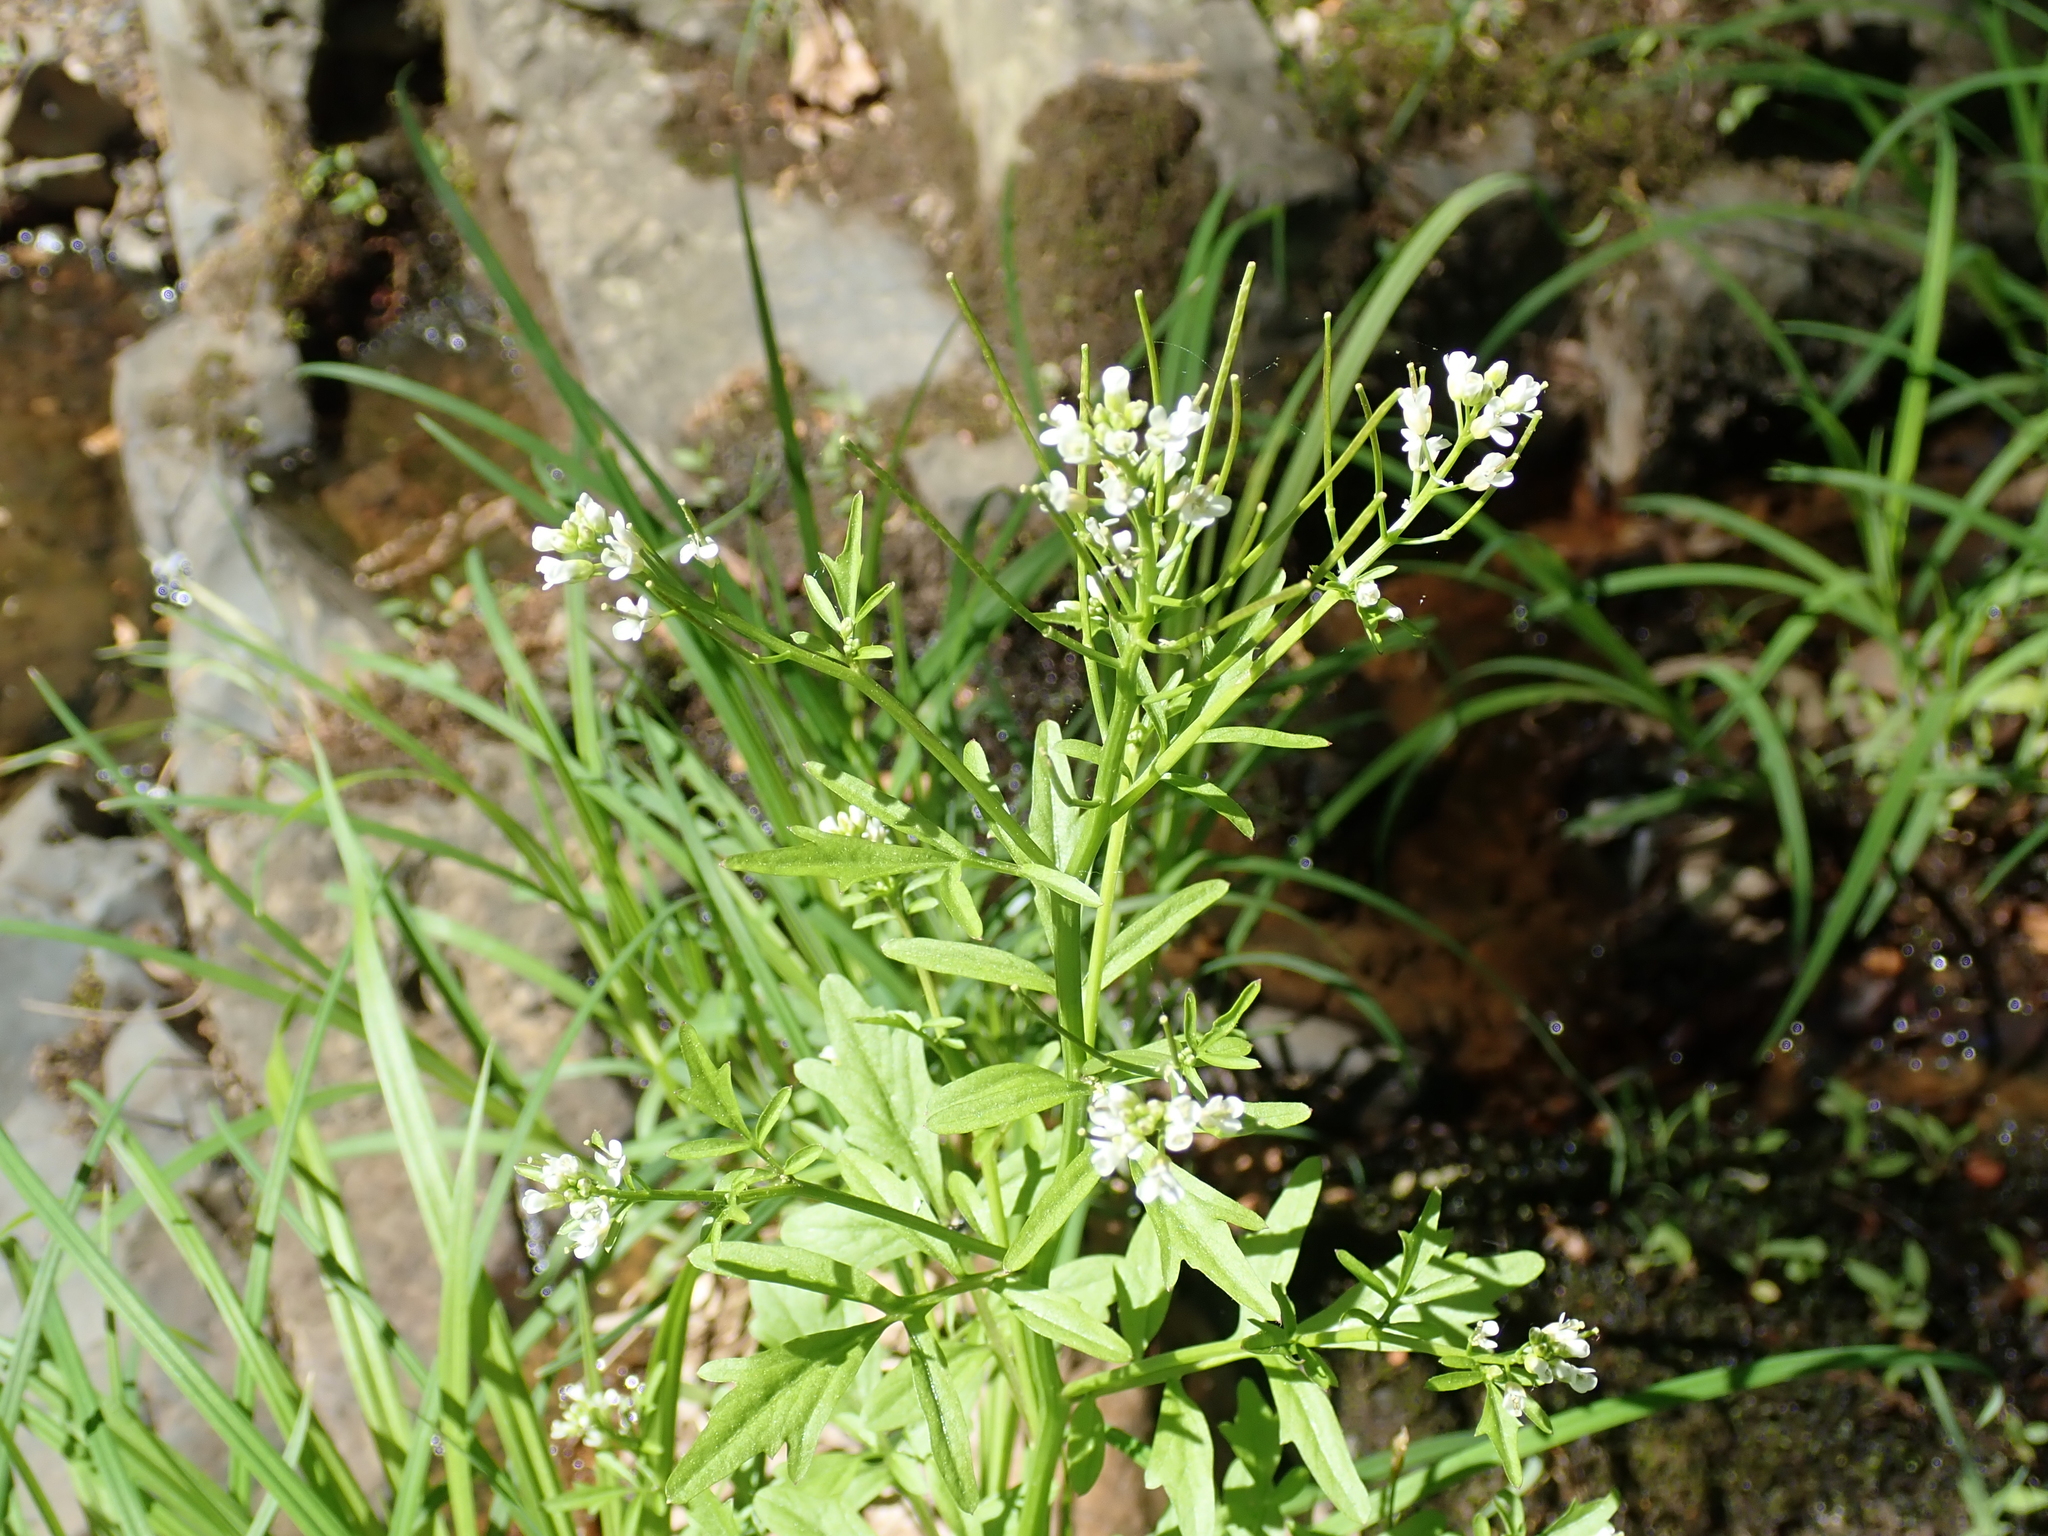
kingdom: Plantae
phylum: Tracheophyta
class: Magnoliopsida
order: Brassicales
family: Brassicaceae
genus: Cardamine
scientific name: Cardamine pensylvanica
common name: Pennsylvania bittercress
